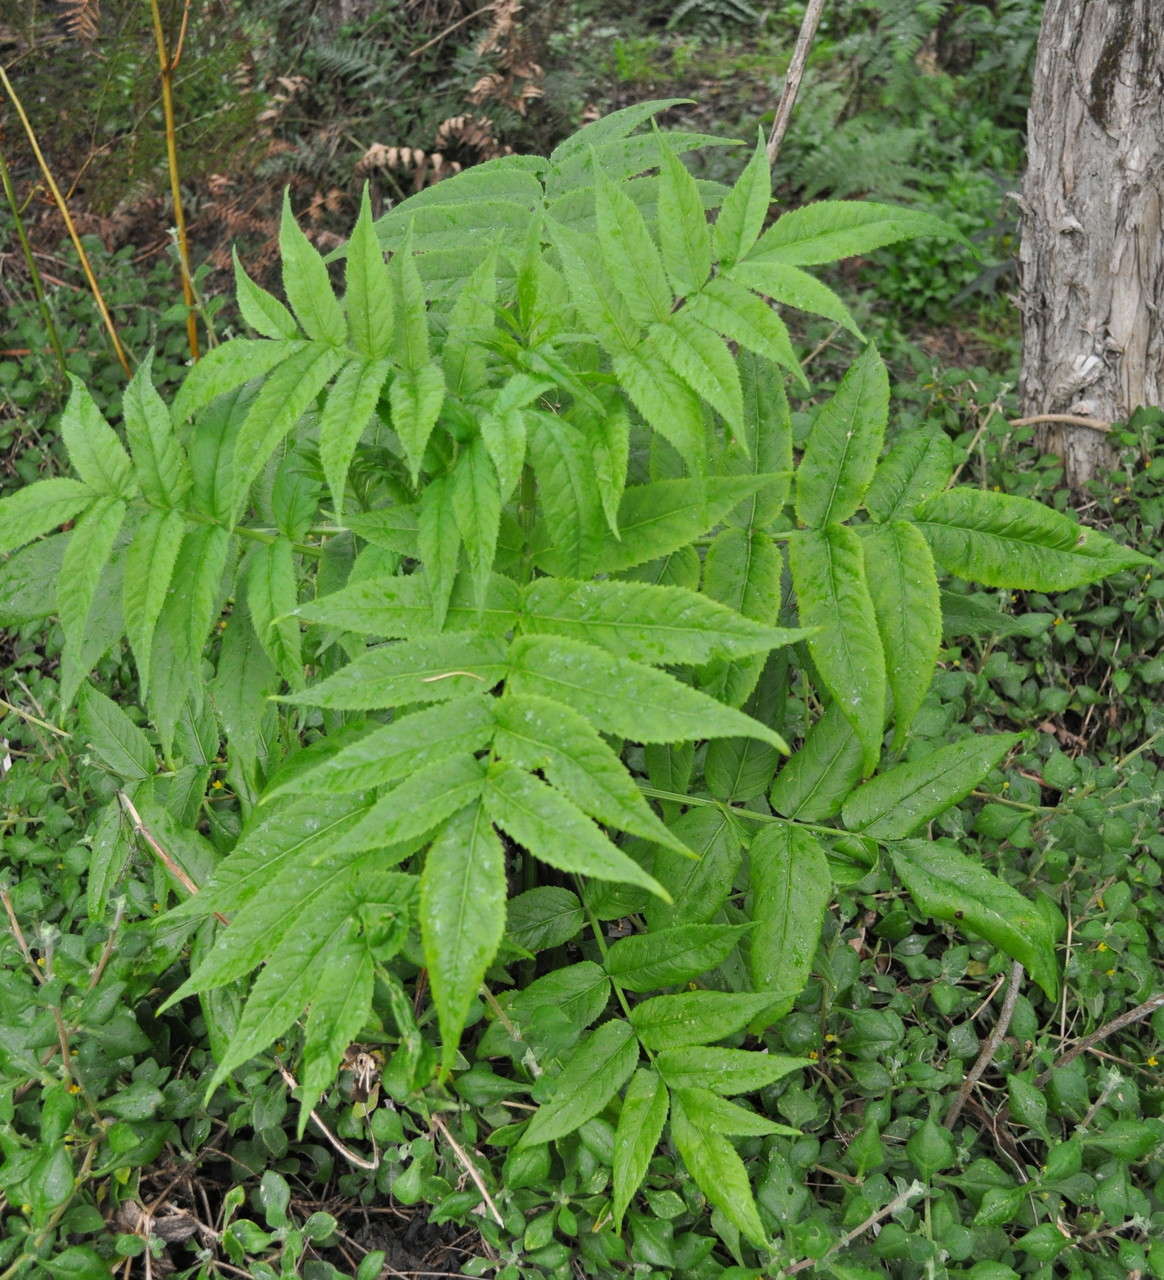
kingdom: Plantae
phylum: Tracheophyta
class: Magnoliopsida
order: Dipsacales
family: Viburnaceae
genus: Sambucus
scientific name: Sambucus gaudichaudiana
